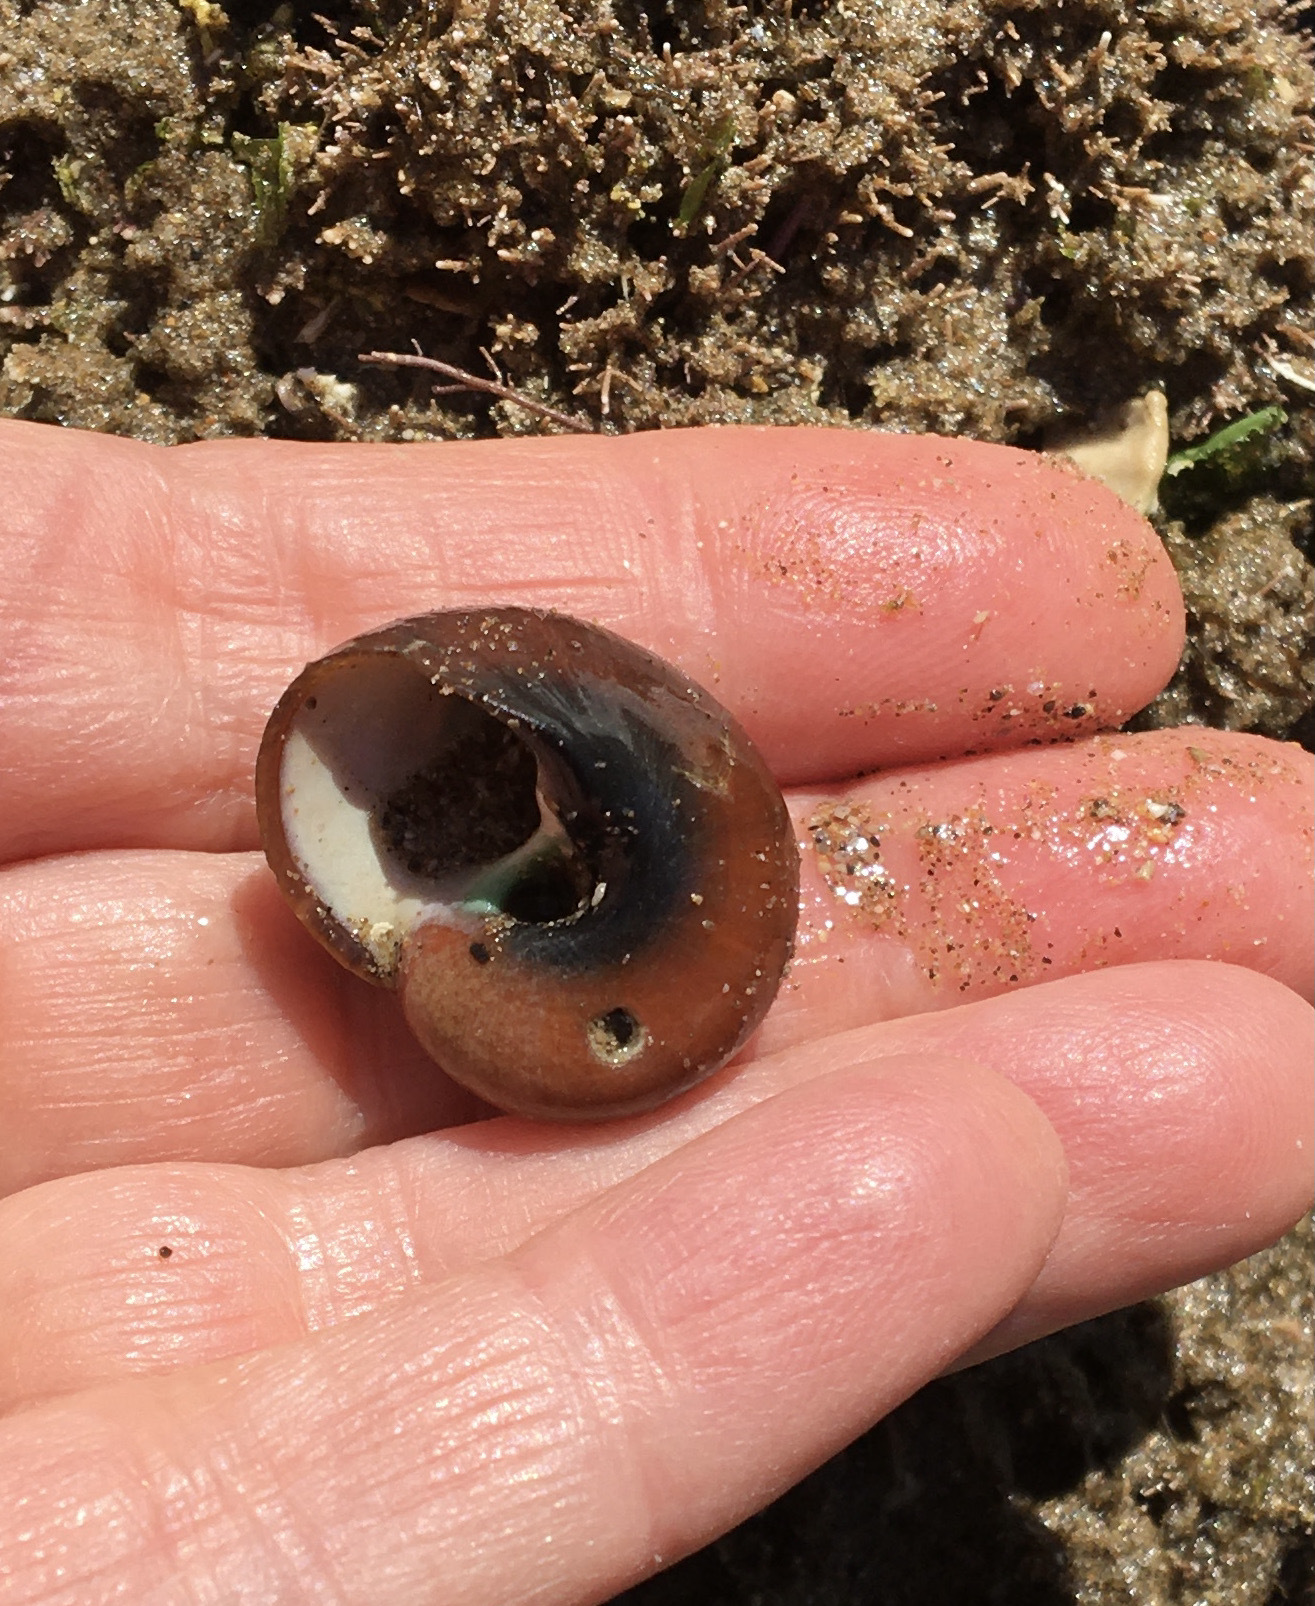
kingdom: Animalia
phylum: Mollusca
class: Gastropoda
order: Trochida
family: Tegulidae
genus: Norrisia
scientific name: Norrisia norrisii
